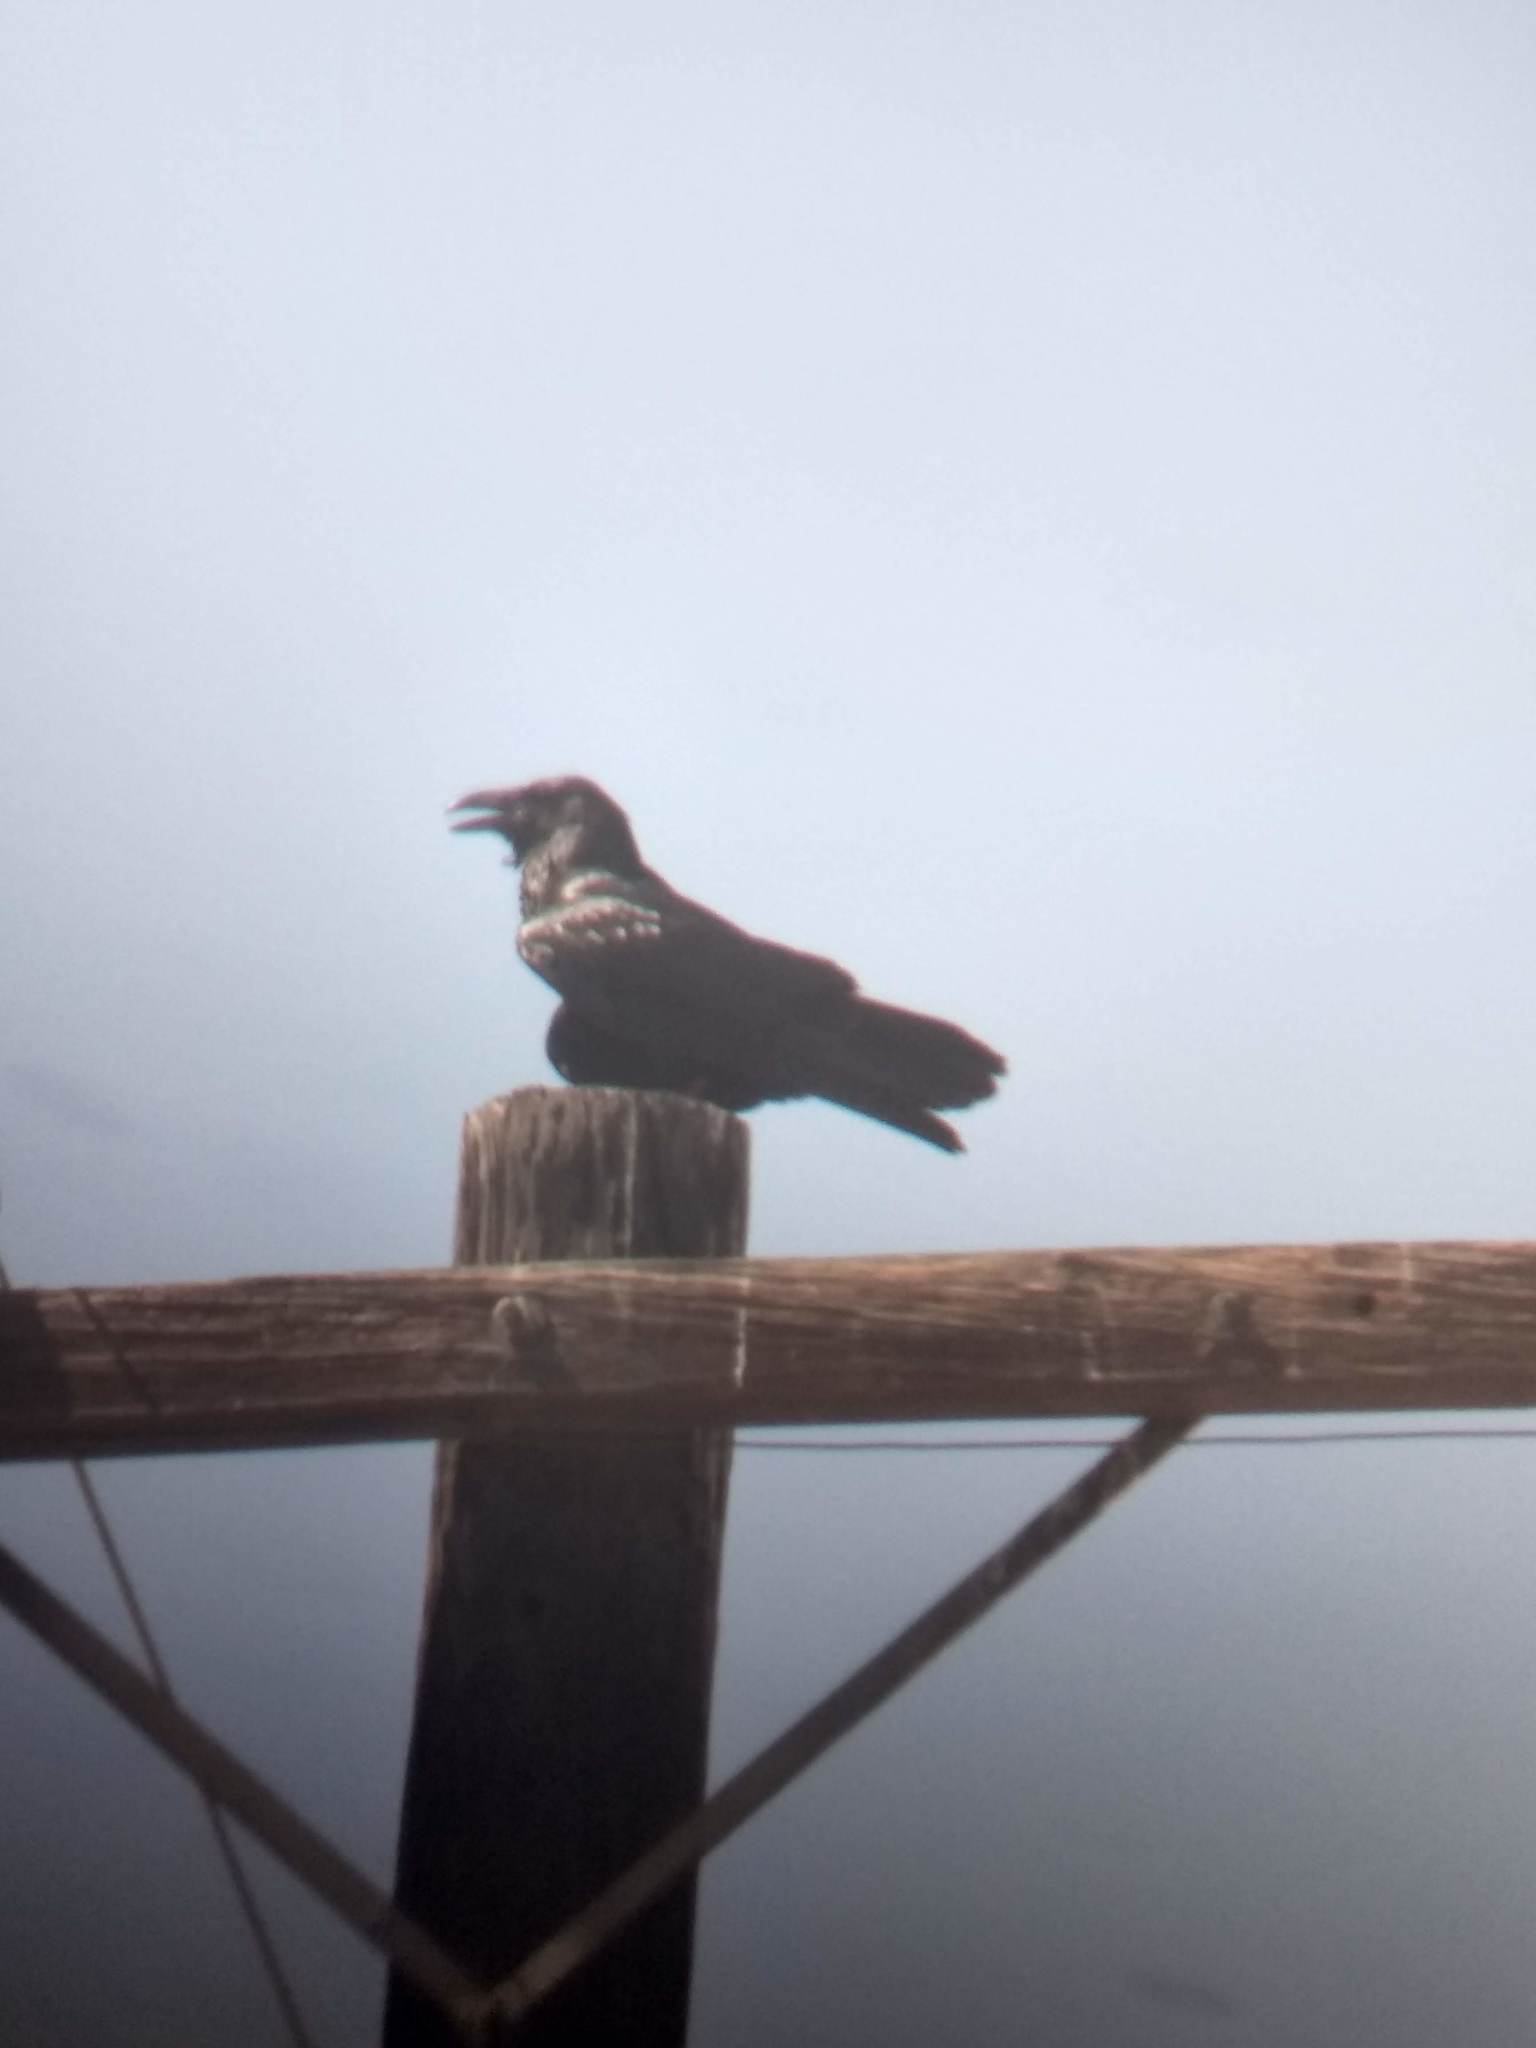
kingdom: Animalia
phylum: Chordata
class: Aves
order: Passeriformes
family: Corvidae
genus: Corvus
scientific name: Corvus corax
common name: Common raven
